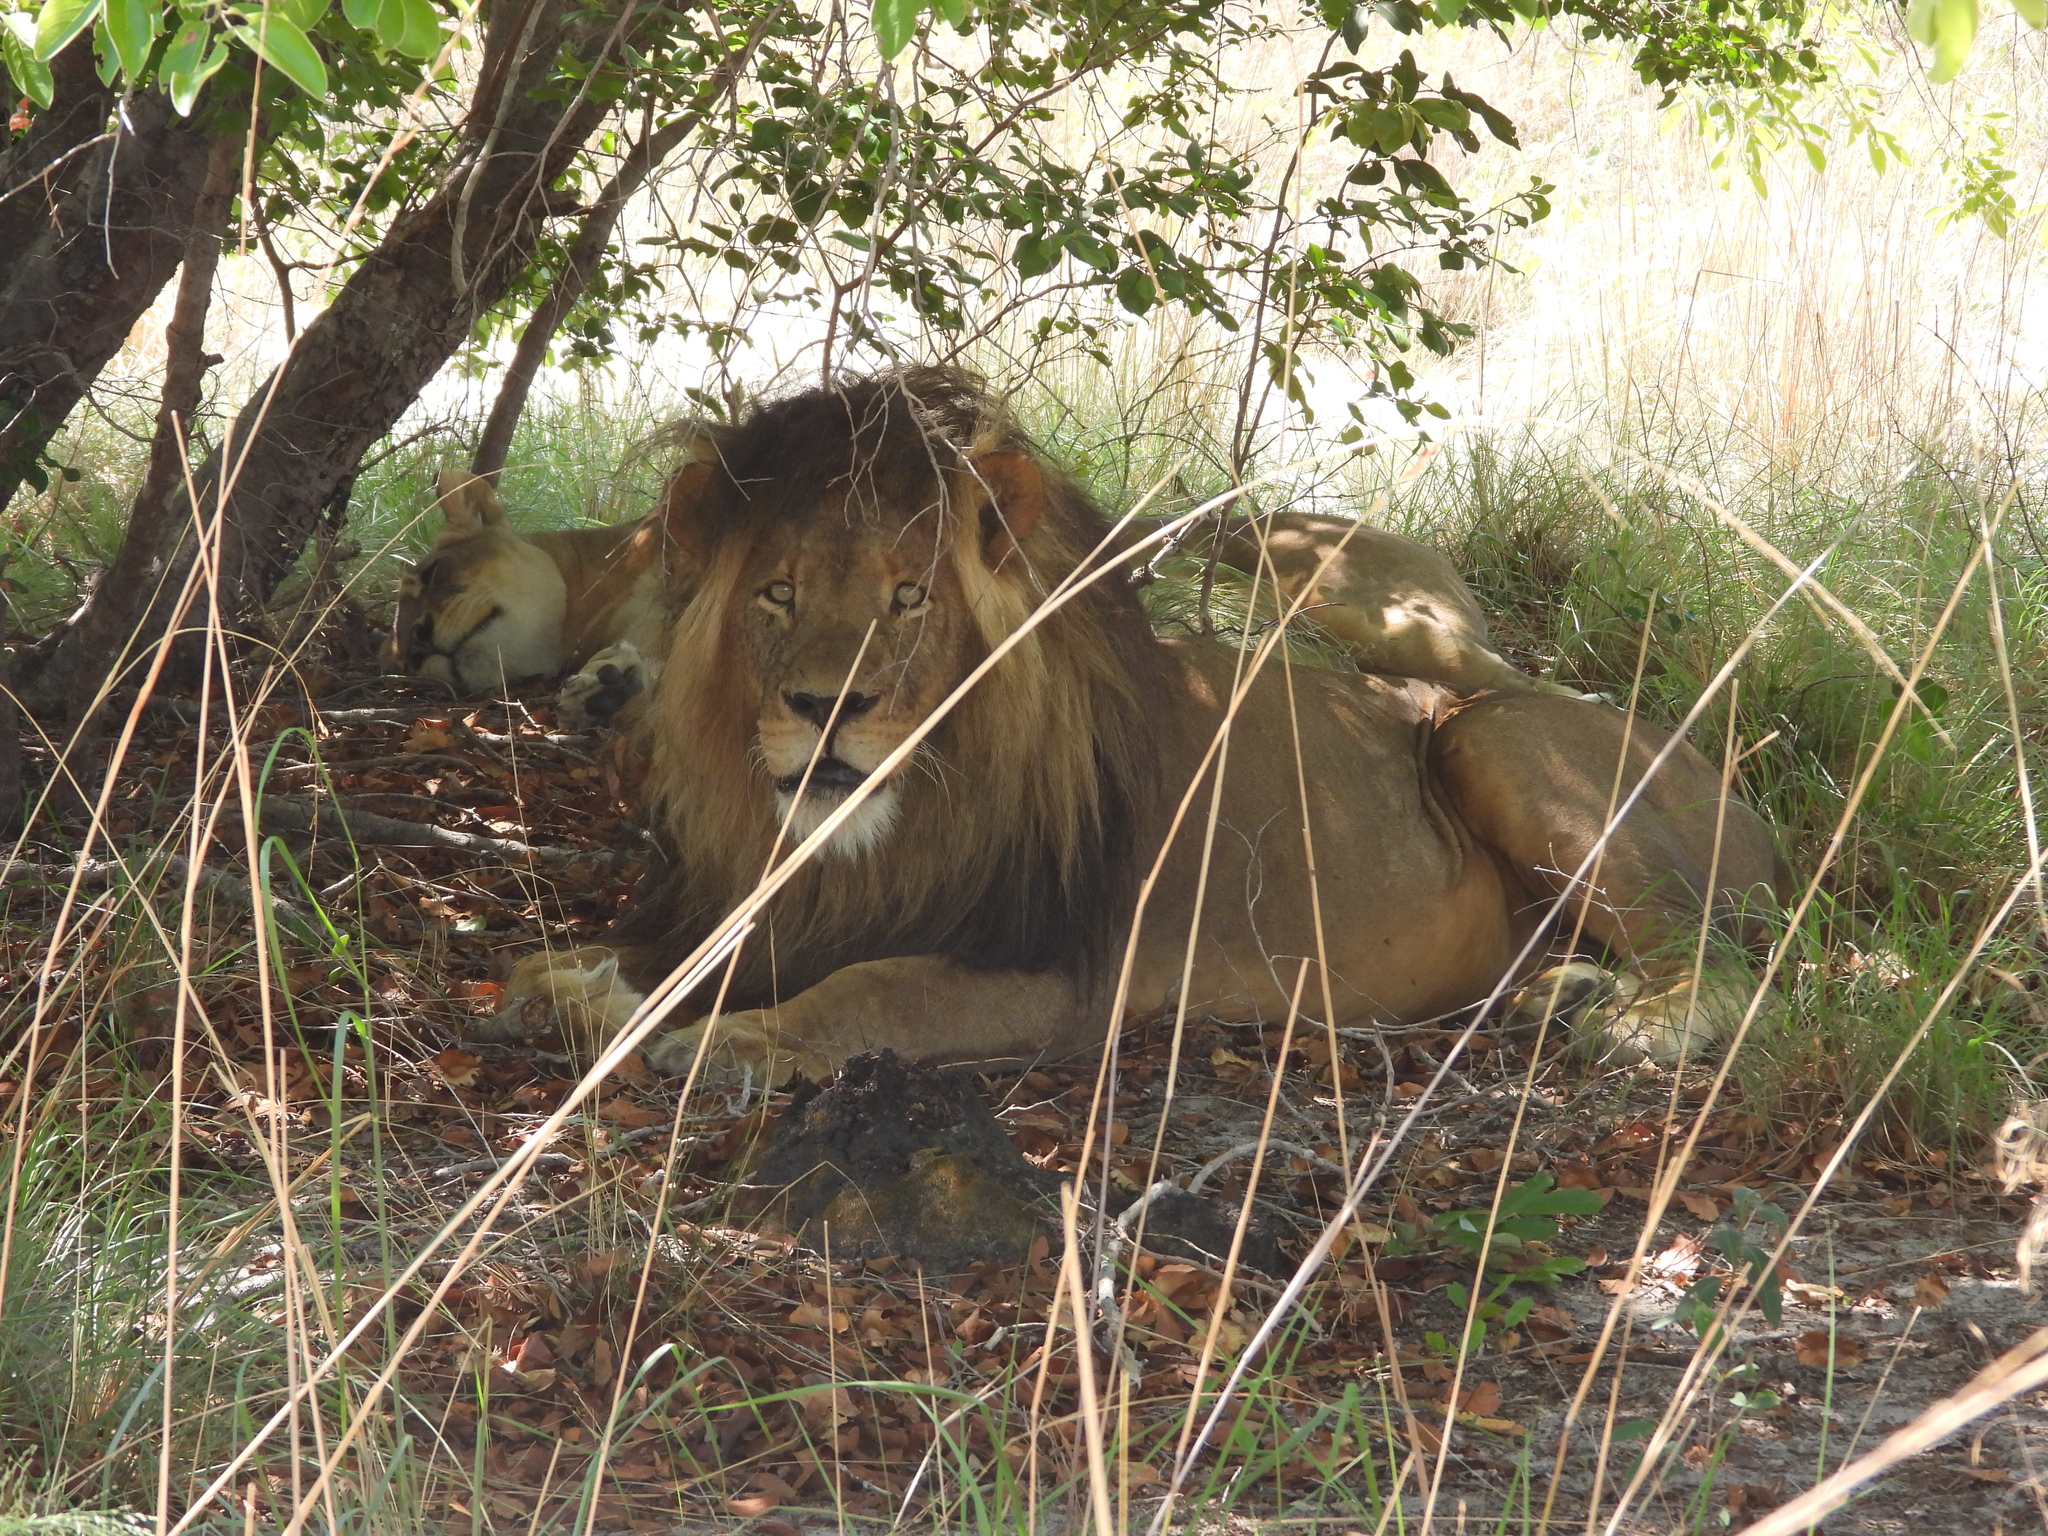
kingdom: Animalia
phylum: Chordata
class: Mammalia
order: Carnivora
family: Felidae
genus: Panthera
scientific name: Panthera leo
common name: Lion
